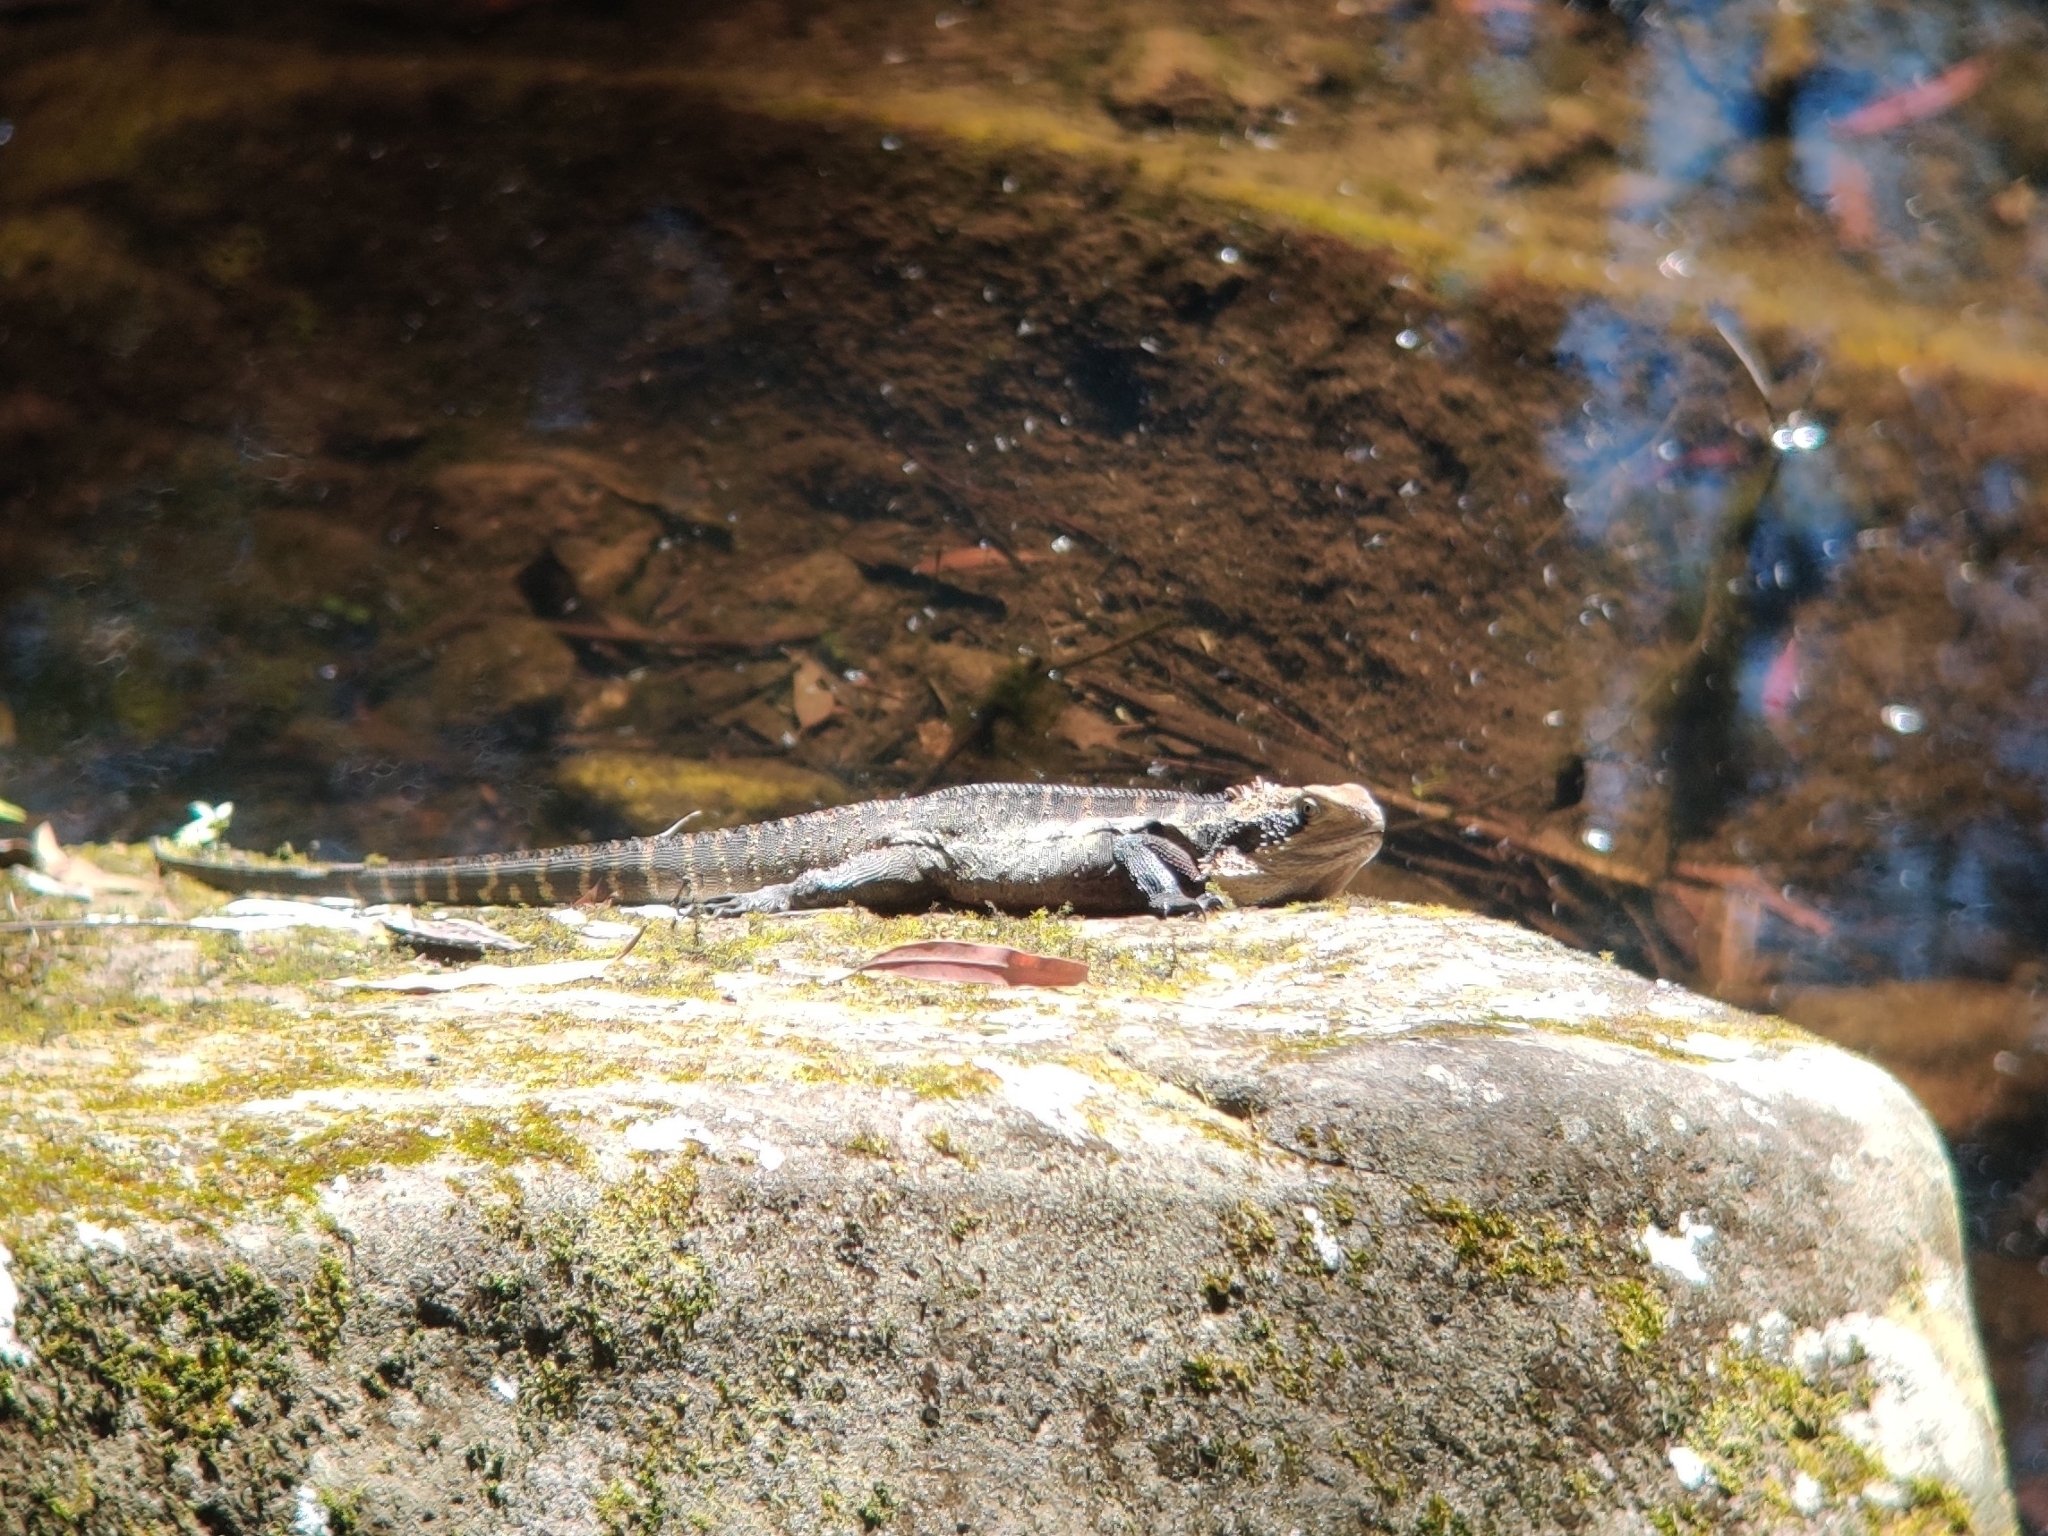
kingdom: Animalia
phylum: Chordata
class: Squamata
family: Agamidae
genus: Intellagama
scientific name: Intellagama lesueurii
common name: Eastern water dragon
